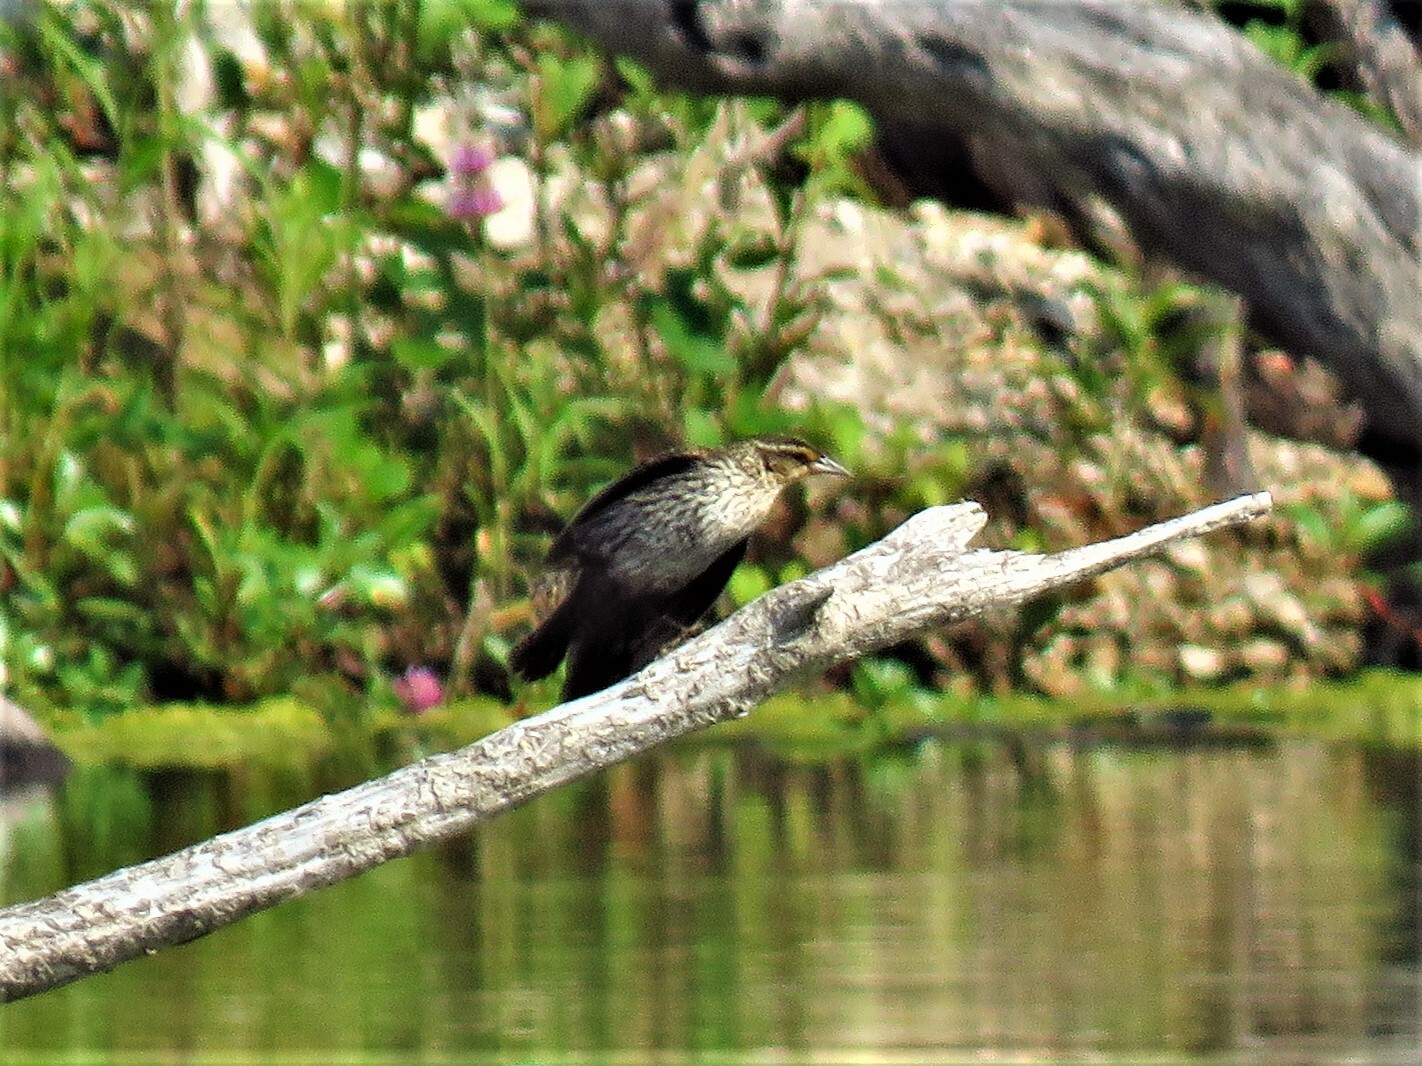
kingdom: Animalia
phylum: Chordata
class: Aves
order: Passeriformes
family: Icteridae
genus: Agelaius
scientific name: Agelaius phoeniceus
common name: Red-winged blackbird
